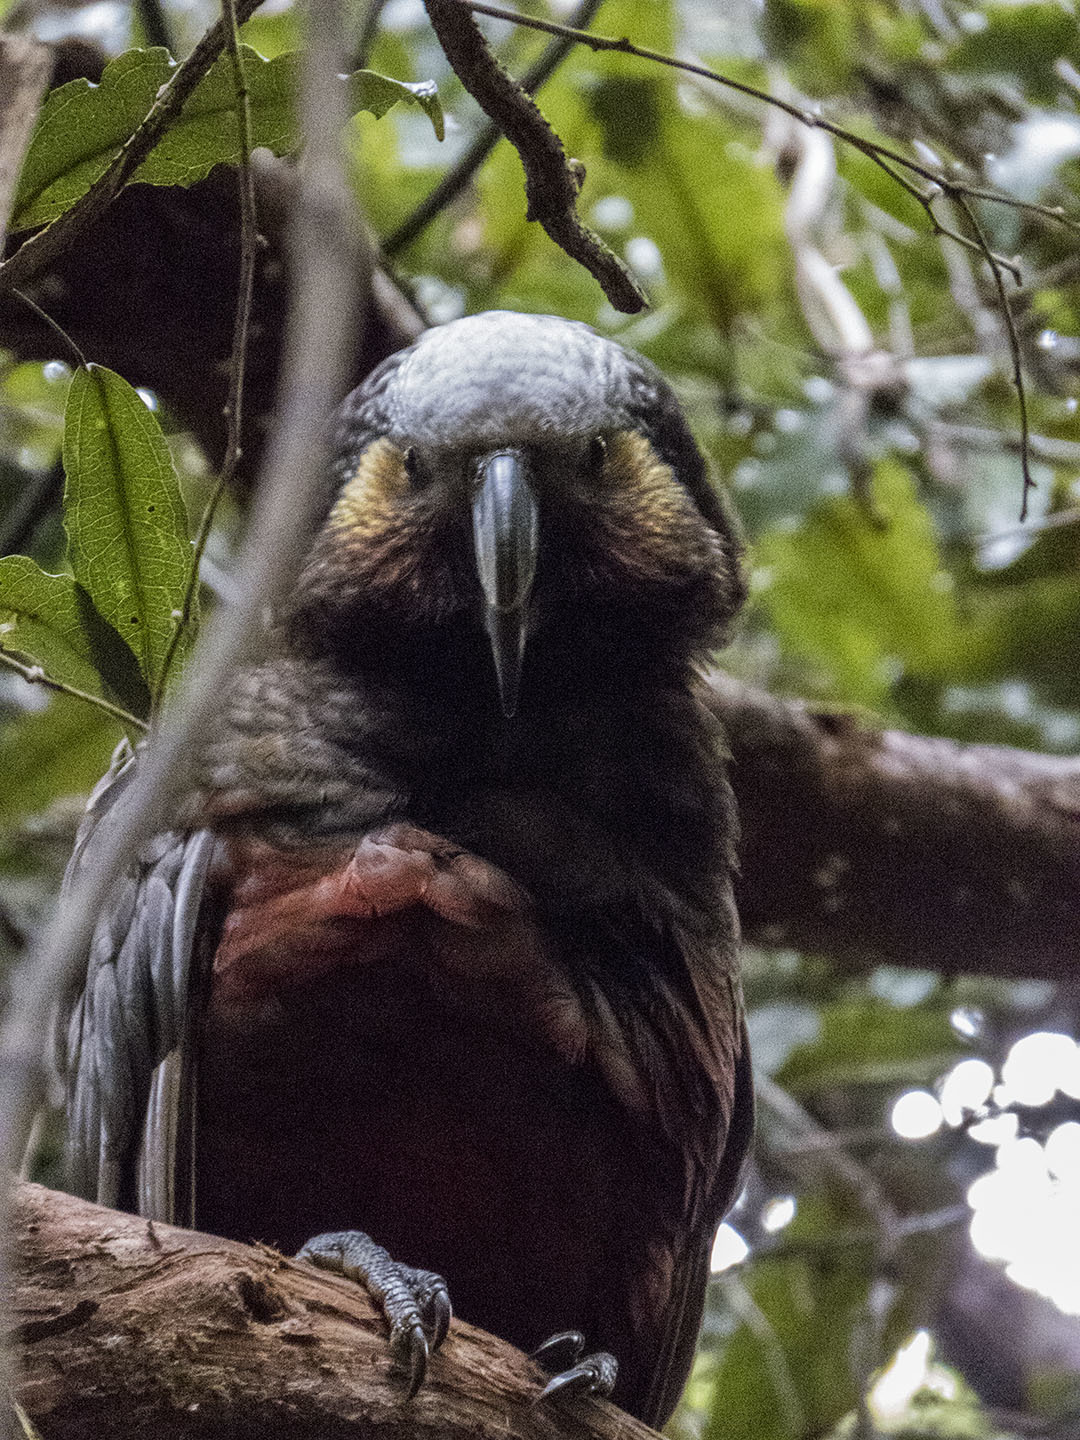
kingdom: Animalia
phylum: Chordata
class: Aves
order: Psittaciformes
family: Psittacidae
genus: Nestor
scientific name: Nestor meridionalis
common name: New zealand kaka
